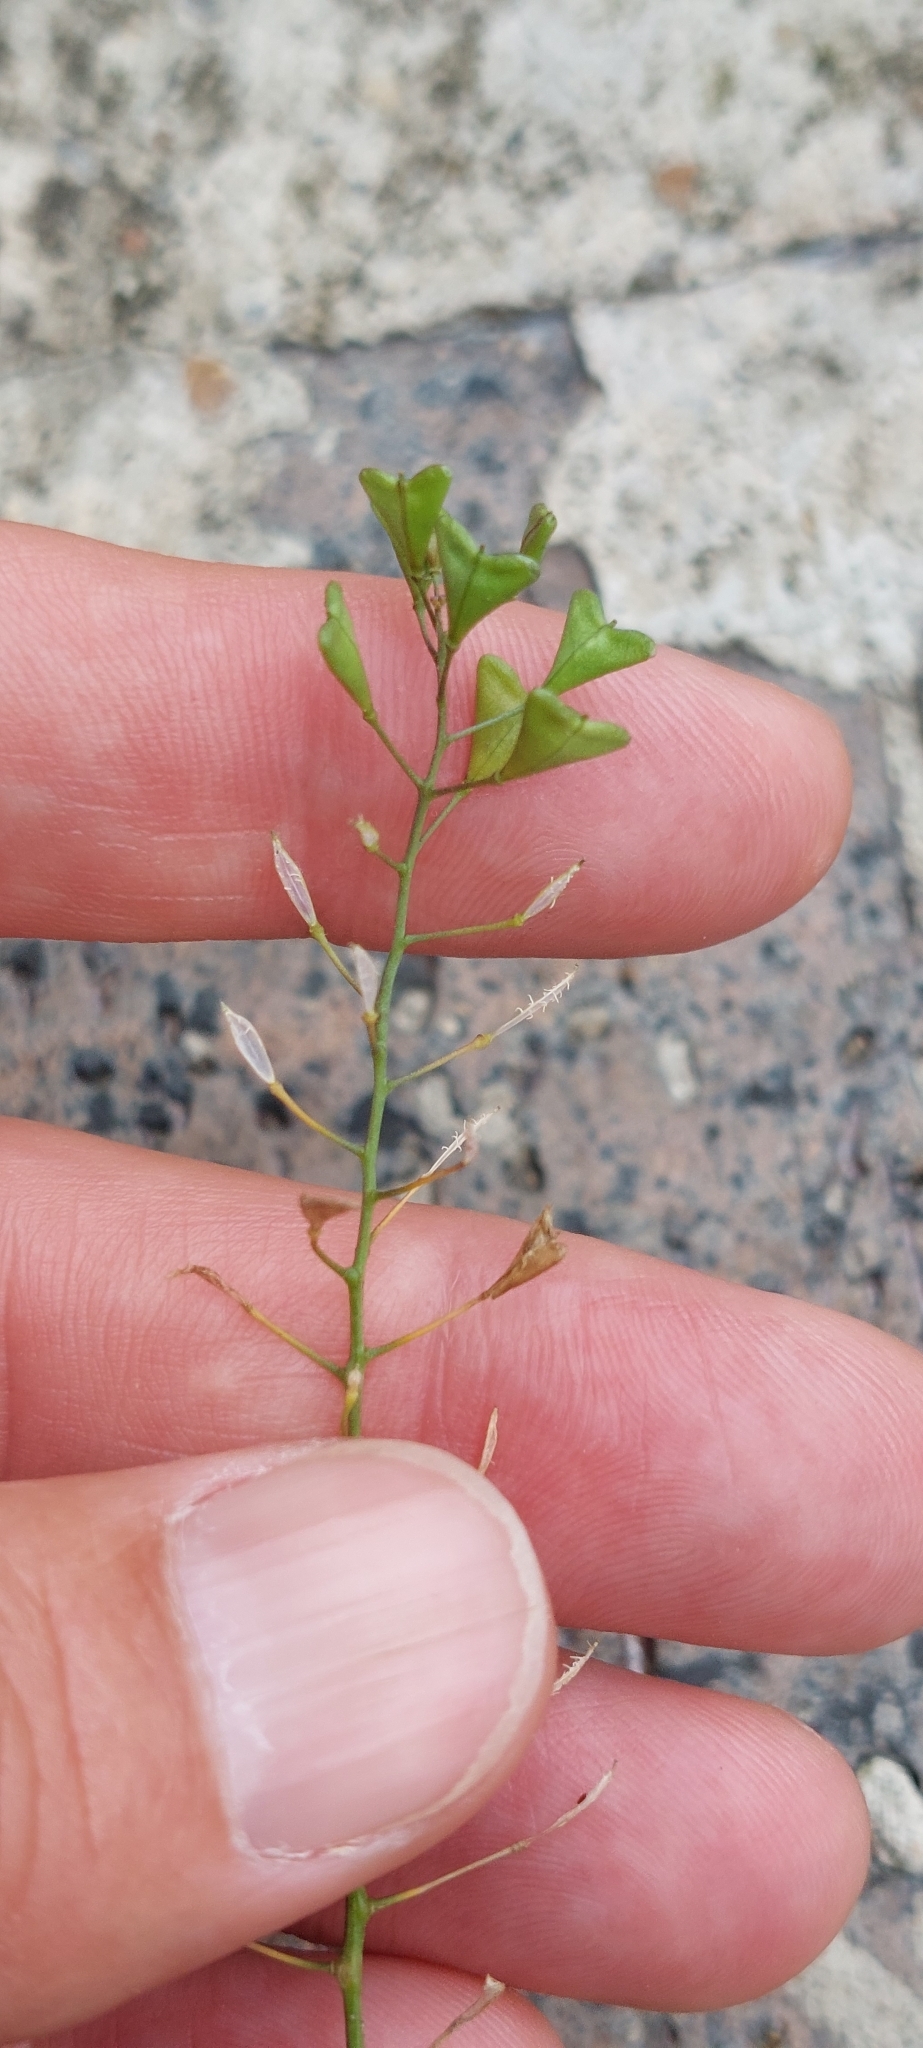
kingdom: Plantae
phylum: Tracheophyta
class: Magnoliopsida
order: Brassicales
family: Brassicaceae
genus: Capsella
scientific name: Capsella bursa-pastoris
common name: Shepherd's purse
